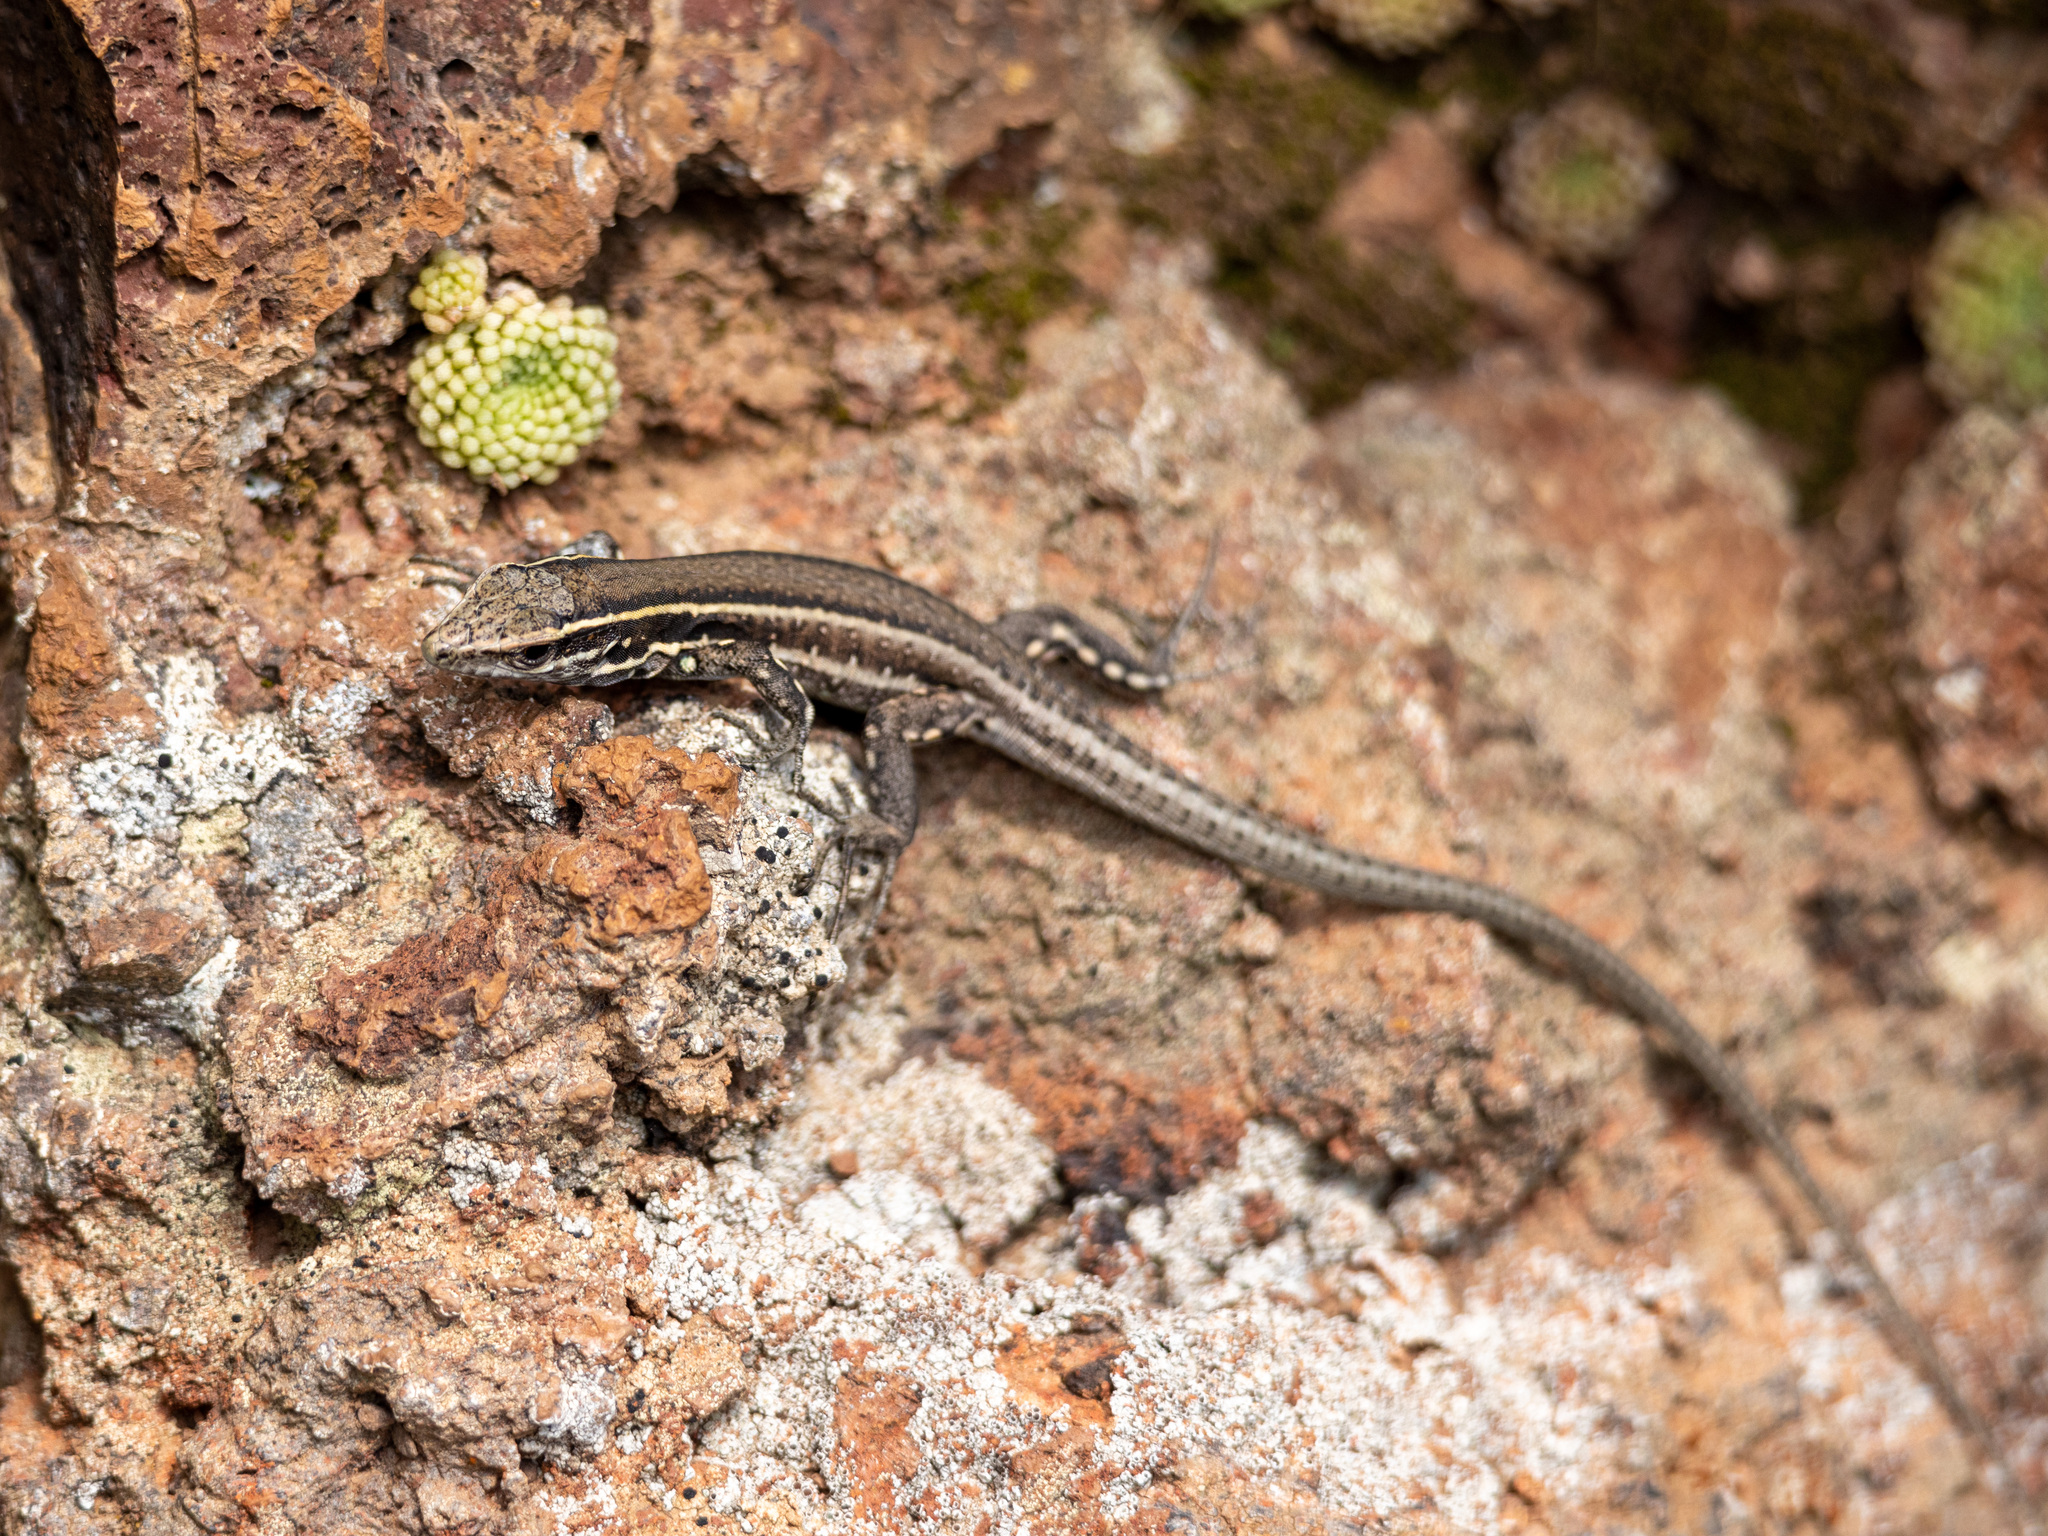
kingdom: Animalia
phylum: Chordata
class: Squamata
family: Lacertidae
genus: Gallotia
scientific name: Gallotia caesaris
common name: Boettger's lizard
